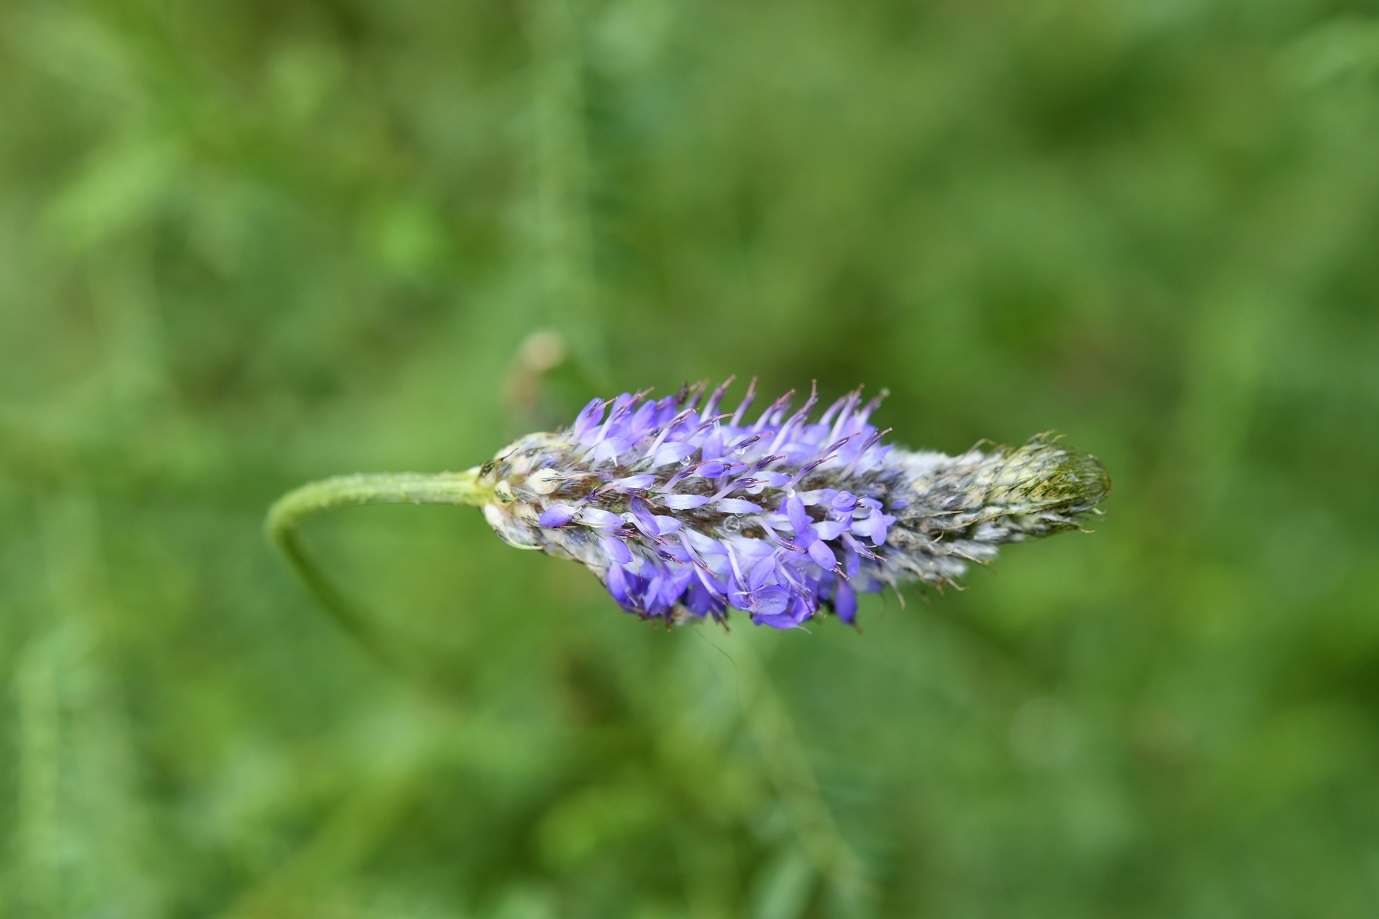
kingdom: Plantae
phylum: Tracheophyta
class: Magnoliopsida
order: Fabales
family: Fabaceae
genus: Dalea
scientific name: Dalea leporina
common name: Foxtail dalea
